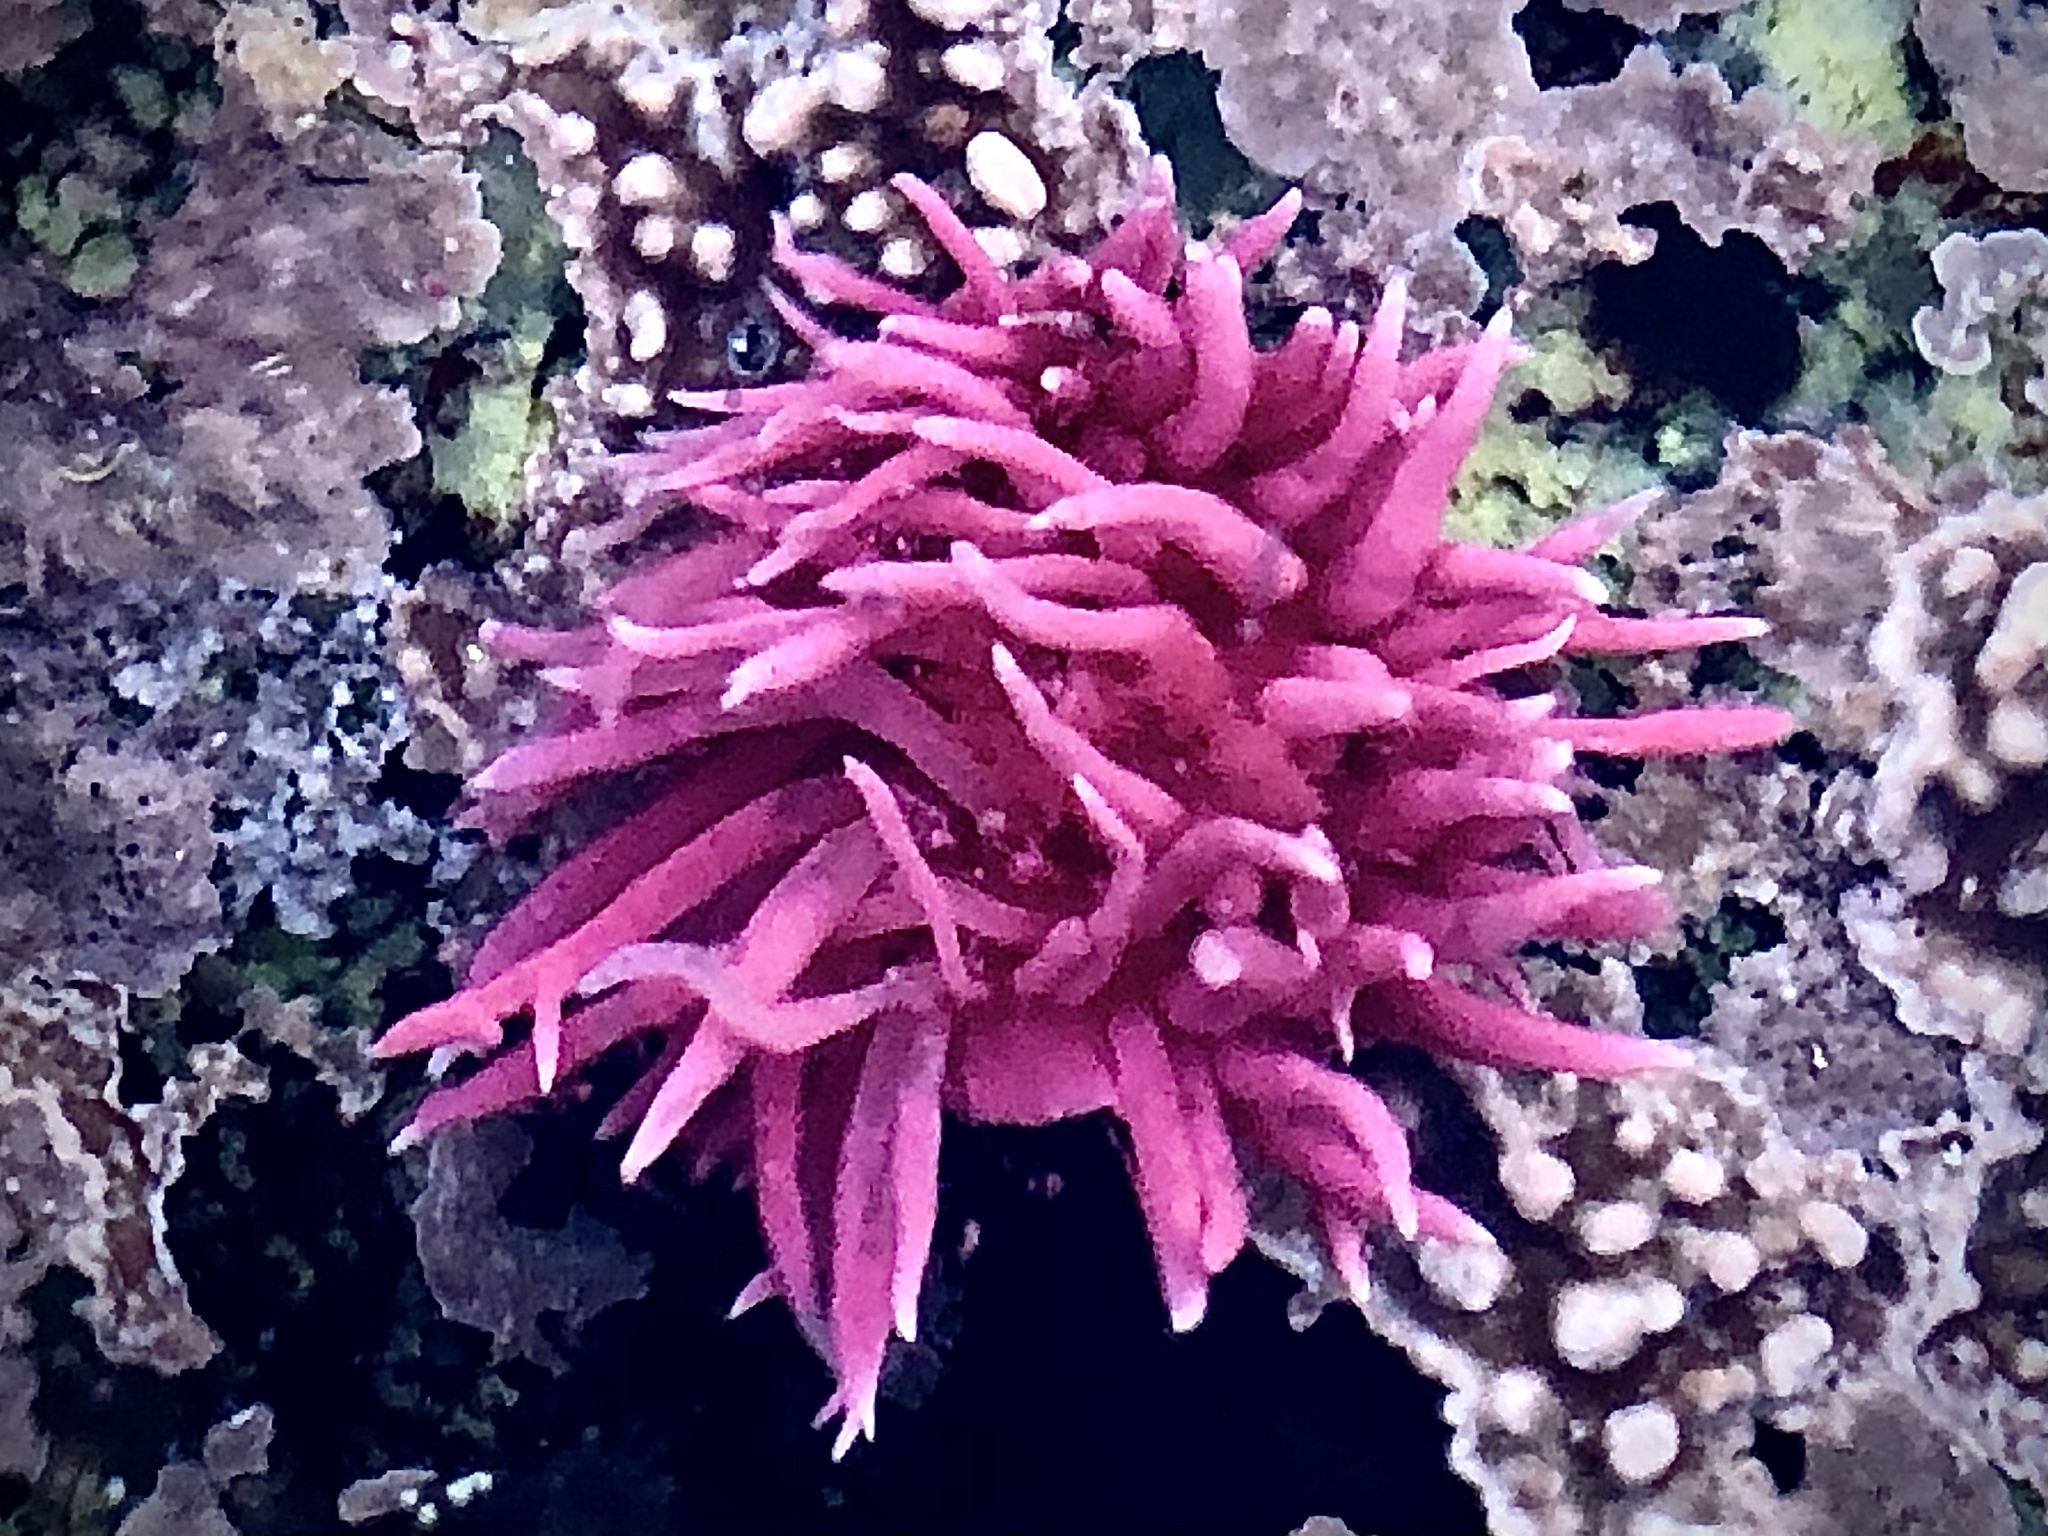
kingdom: Animalia
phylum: Mollusca
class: Gastropoda
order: Nudibranchia
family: Goniodorididae
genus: Okenia
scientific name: Okenia
